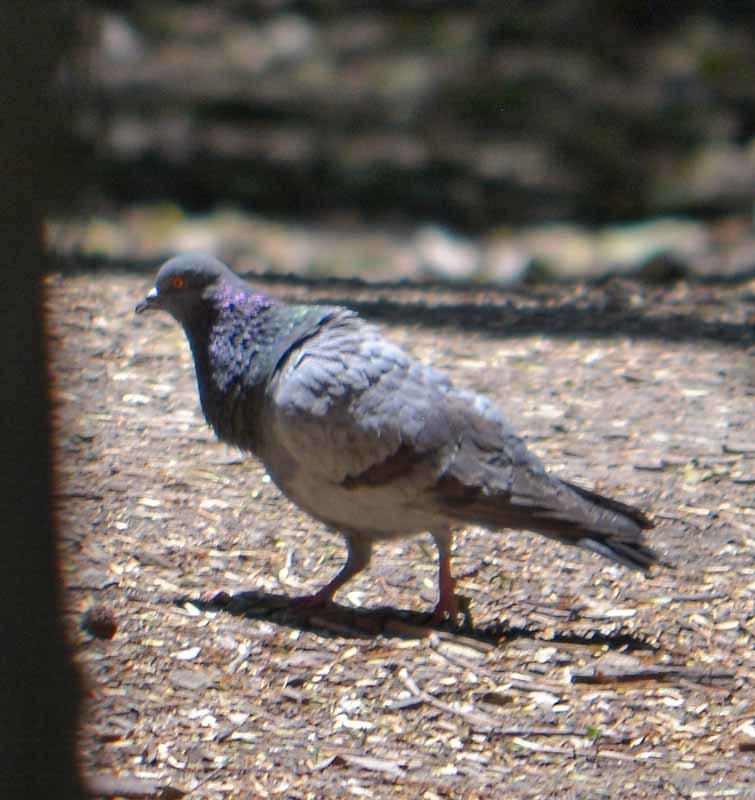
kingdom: Animalia
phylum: Chordata
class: Aves
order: Columbiformes
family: Columbidae
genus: Columba
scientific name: Columba livia
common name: Rock pigeon
